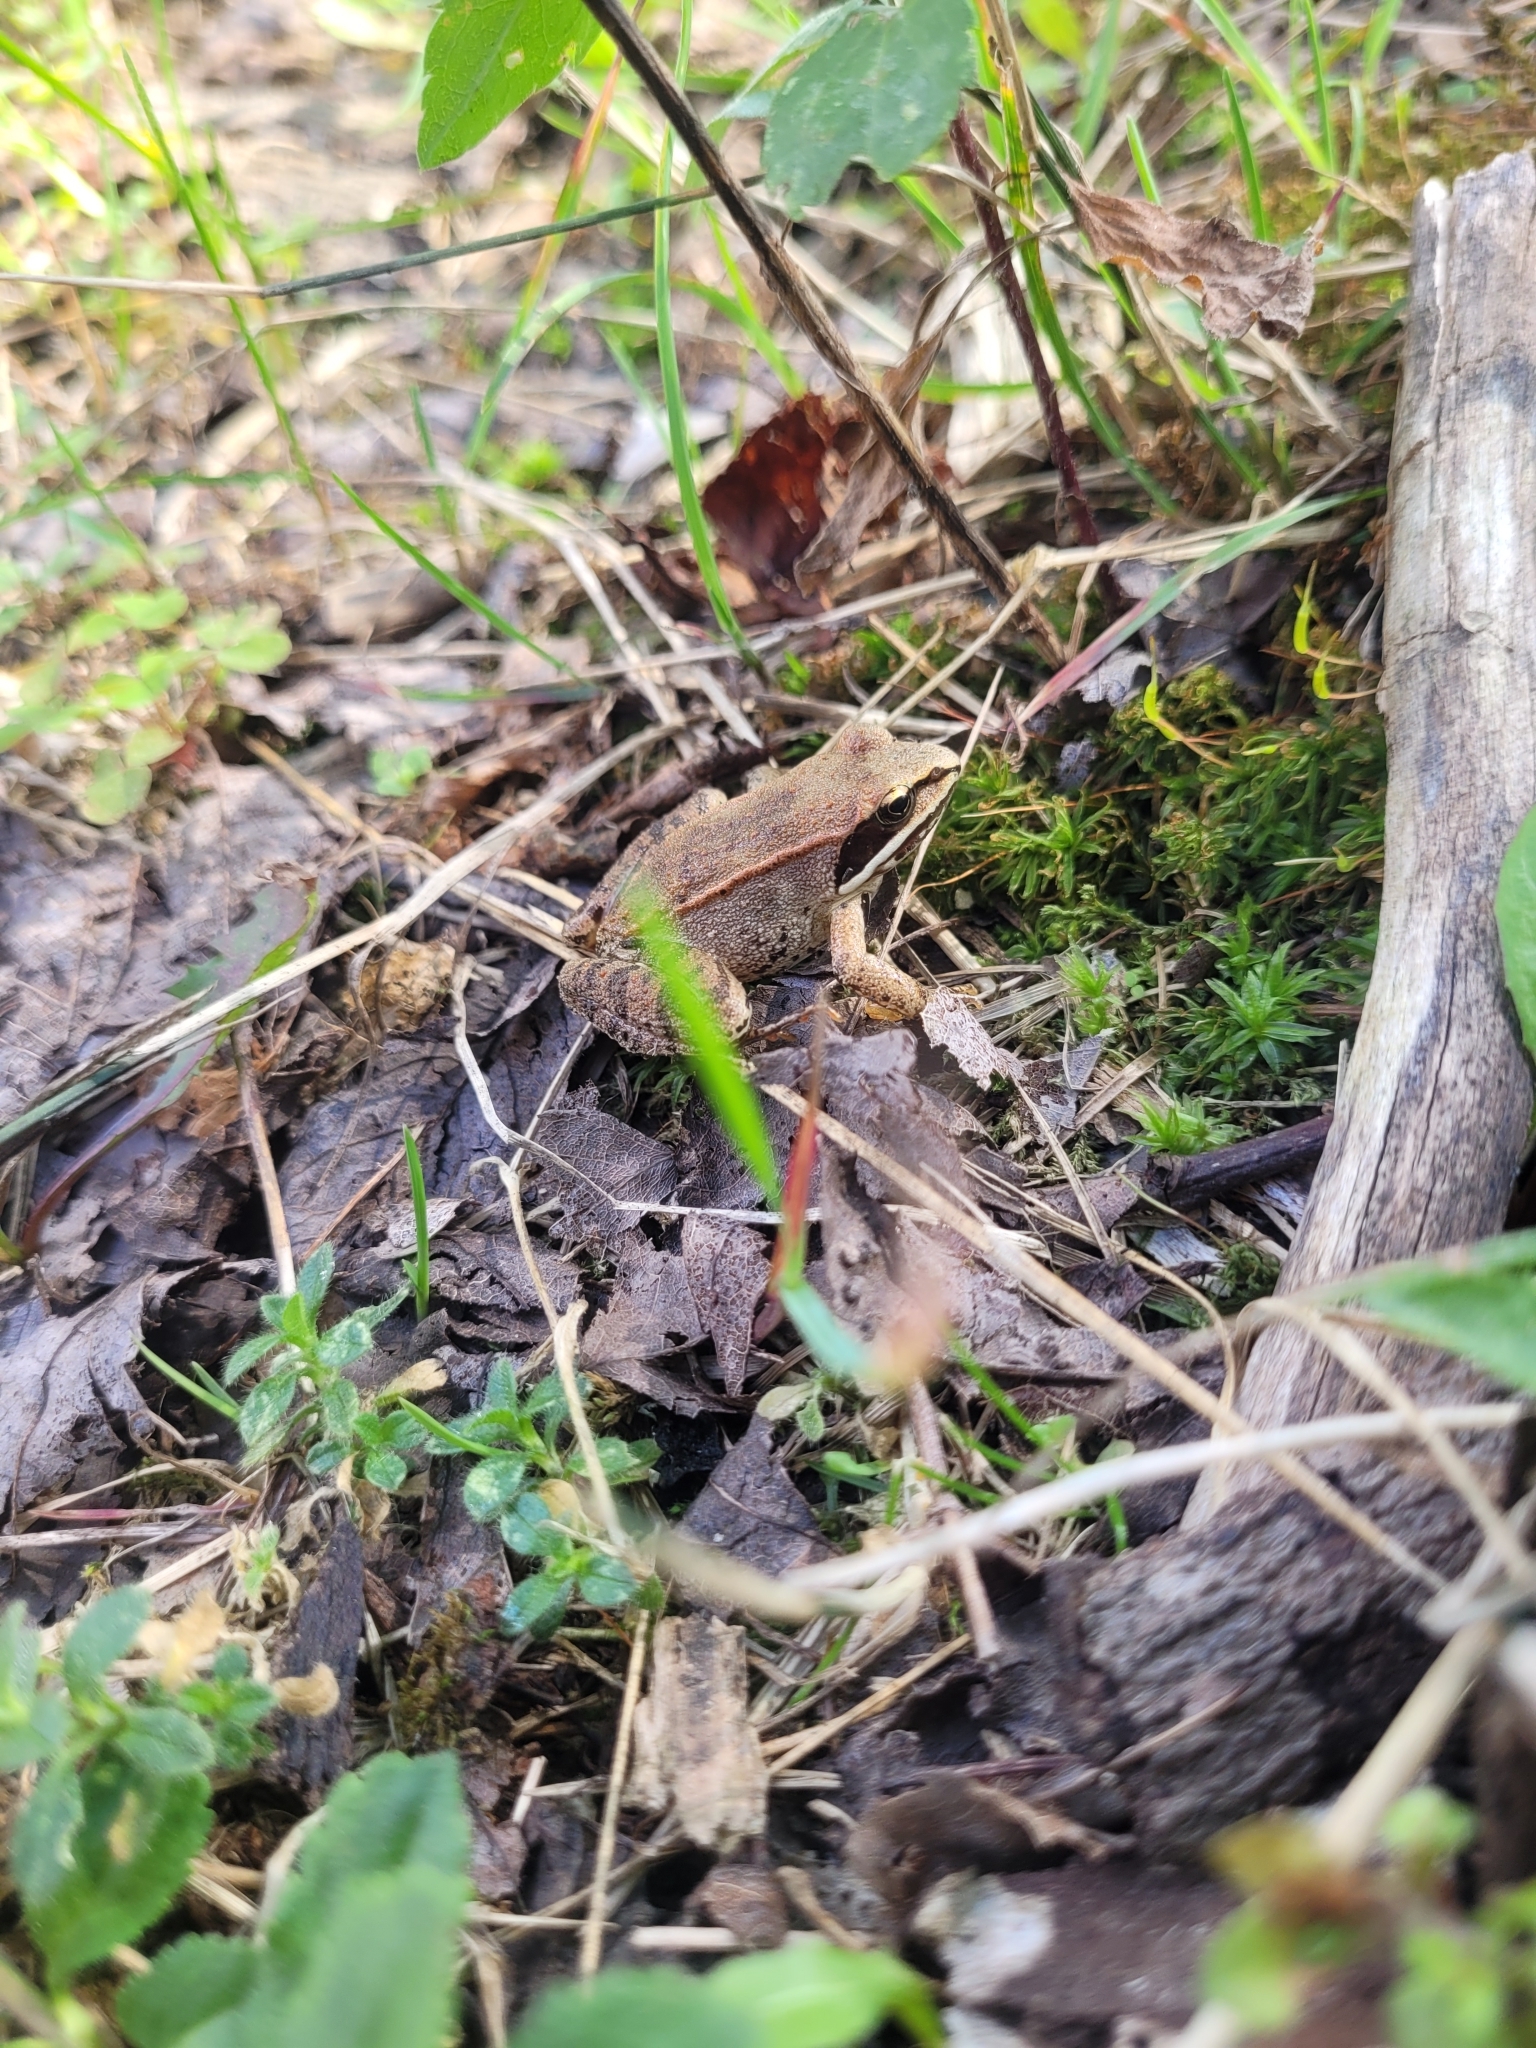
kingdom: Animalia
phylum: Chordata
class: Amphibia
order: Anura
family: Ranidae
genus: Lithobates
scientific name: Lithobates sylvaticus
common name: Wood frog
